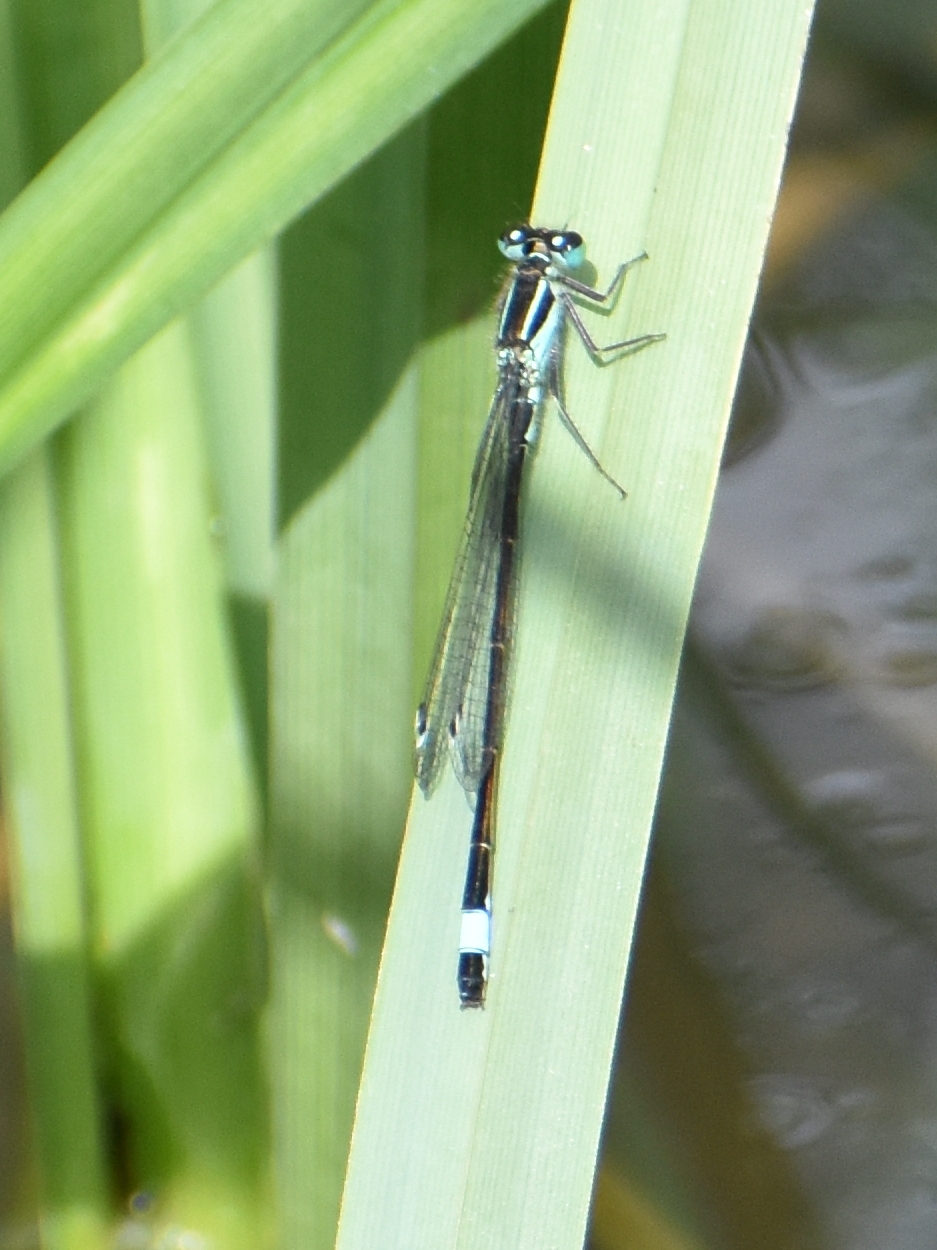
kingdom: Animalia
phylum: Arthropoda
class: Insecta
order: Odonata
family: Coenagrionidae
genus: Ischnura
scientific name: Ischnura elegans
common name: Blue-tailed damselfly
